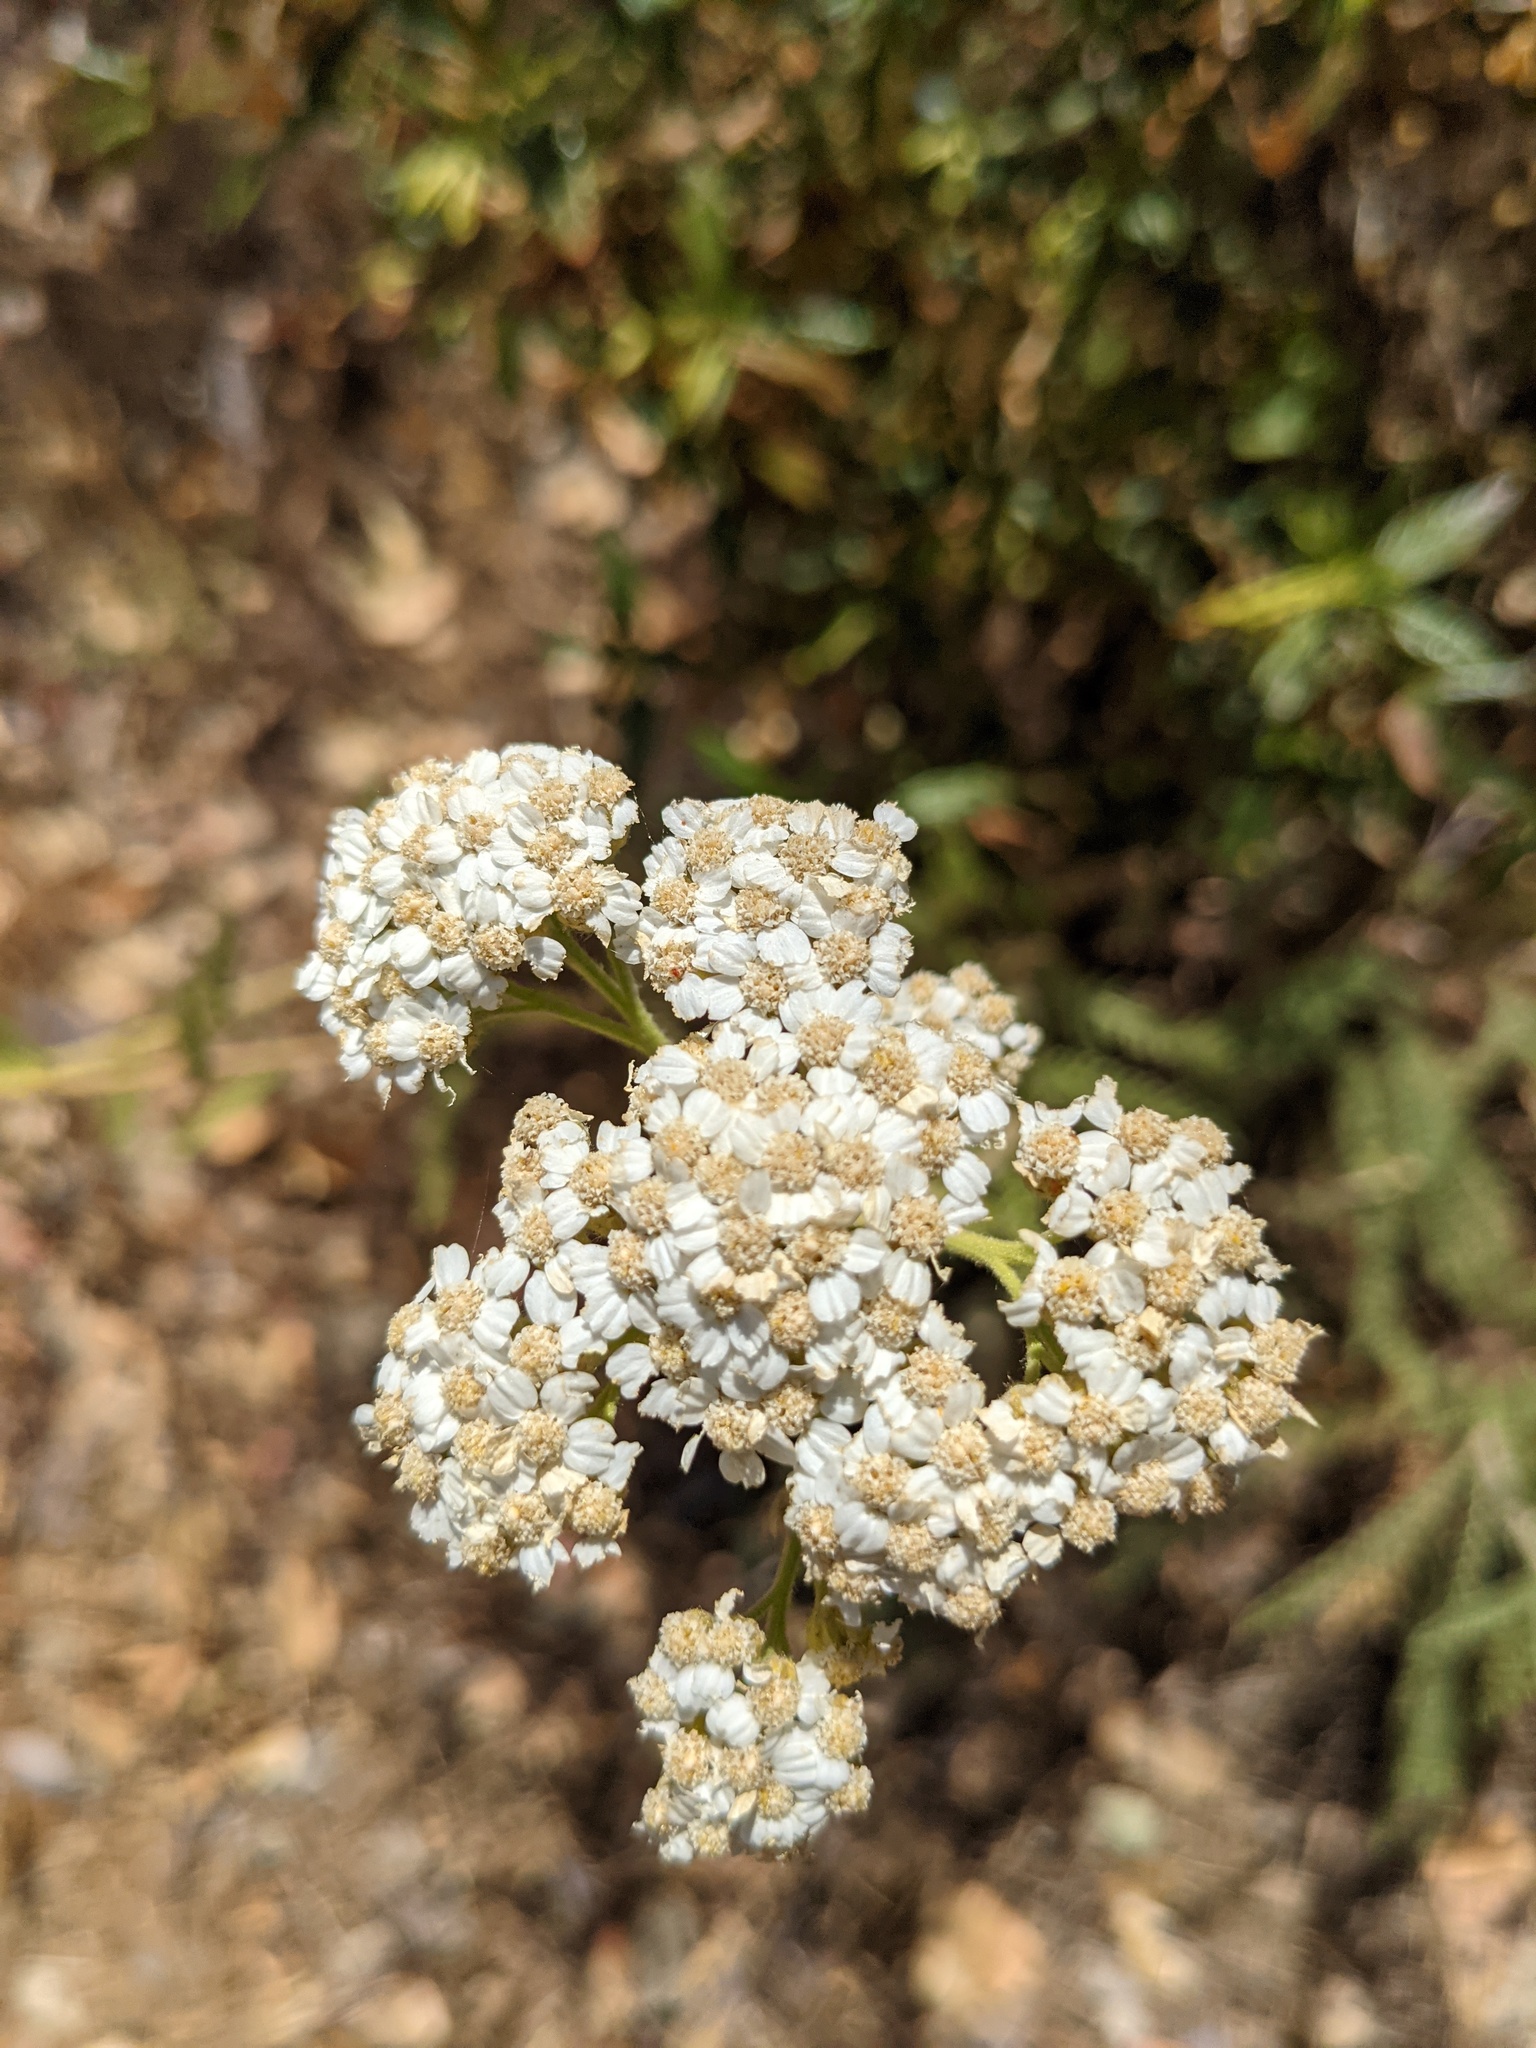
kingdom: Plantae
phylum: Tracheophyta
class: Magnoliopsida
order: Asterales
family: Asteraceae
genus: Achillea
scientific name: Achillea millefolium
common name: Yarrow
